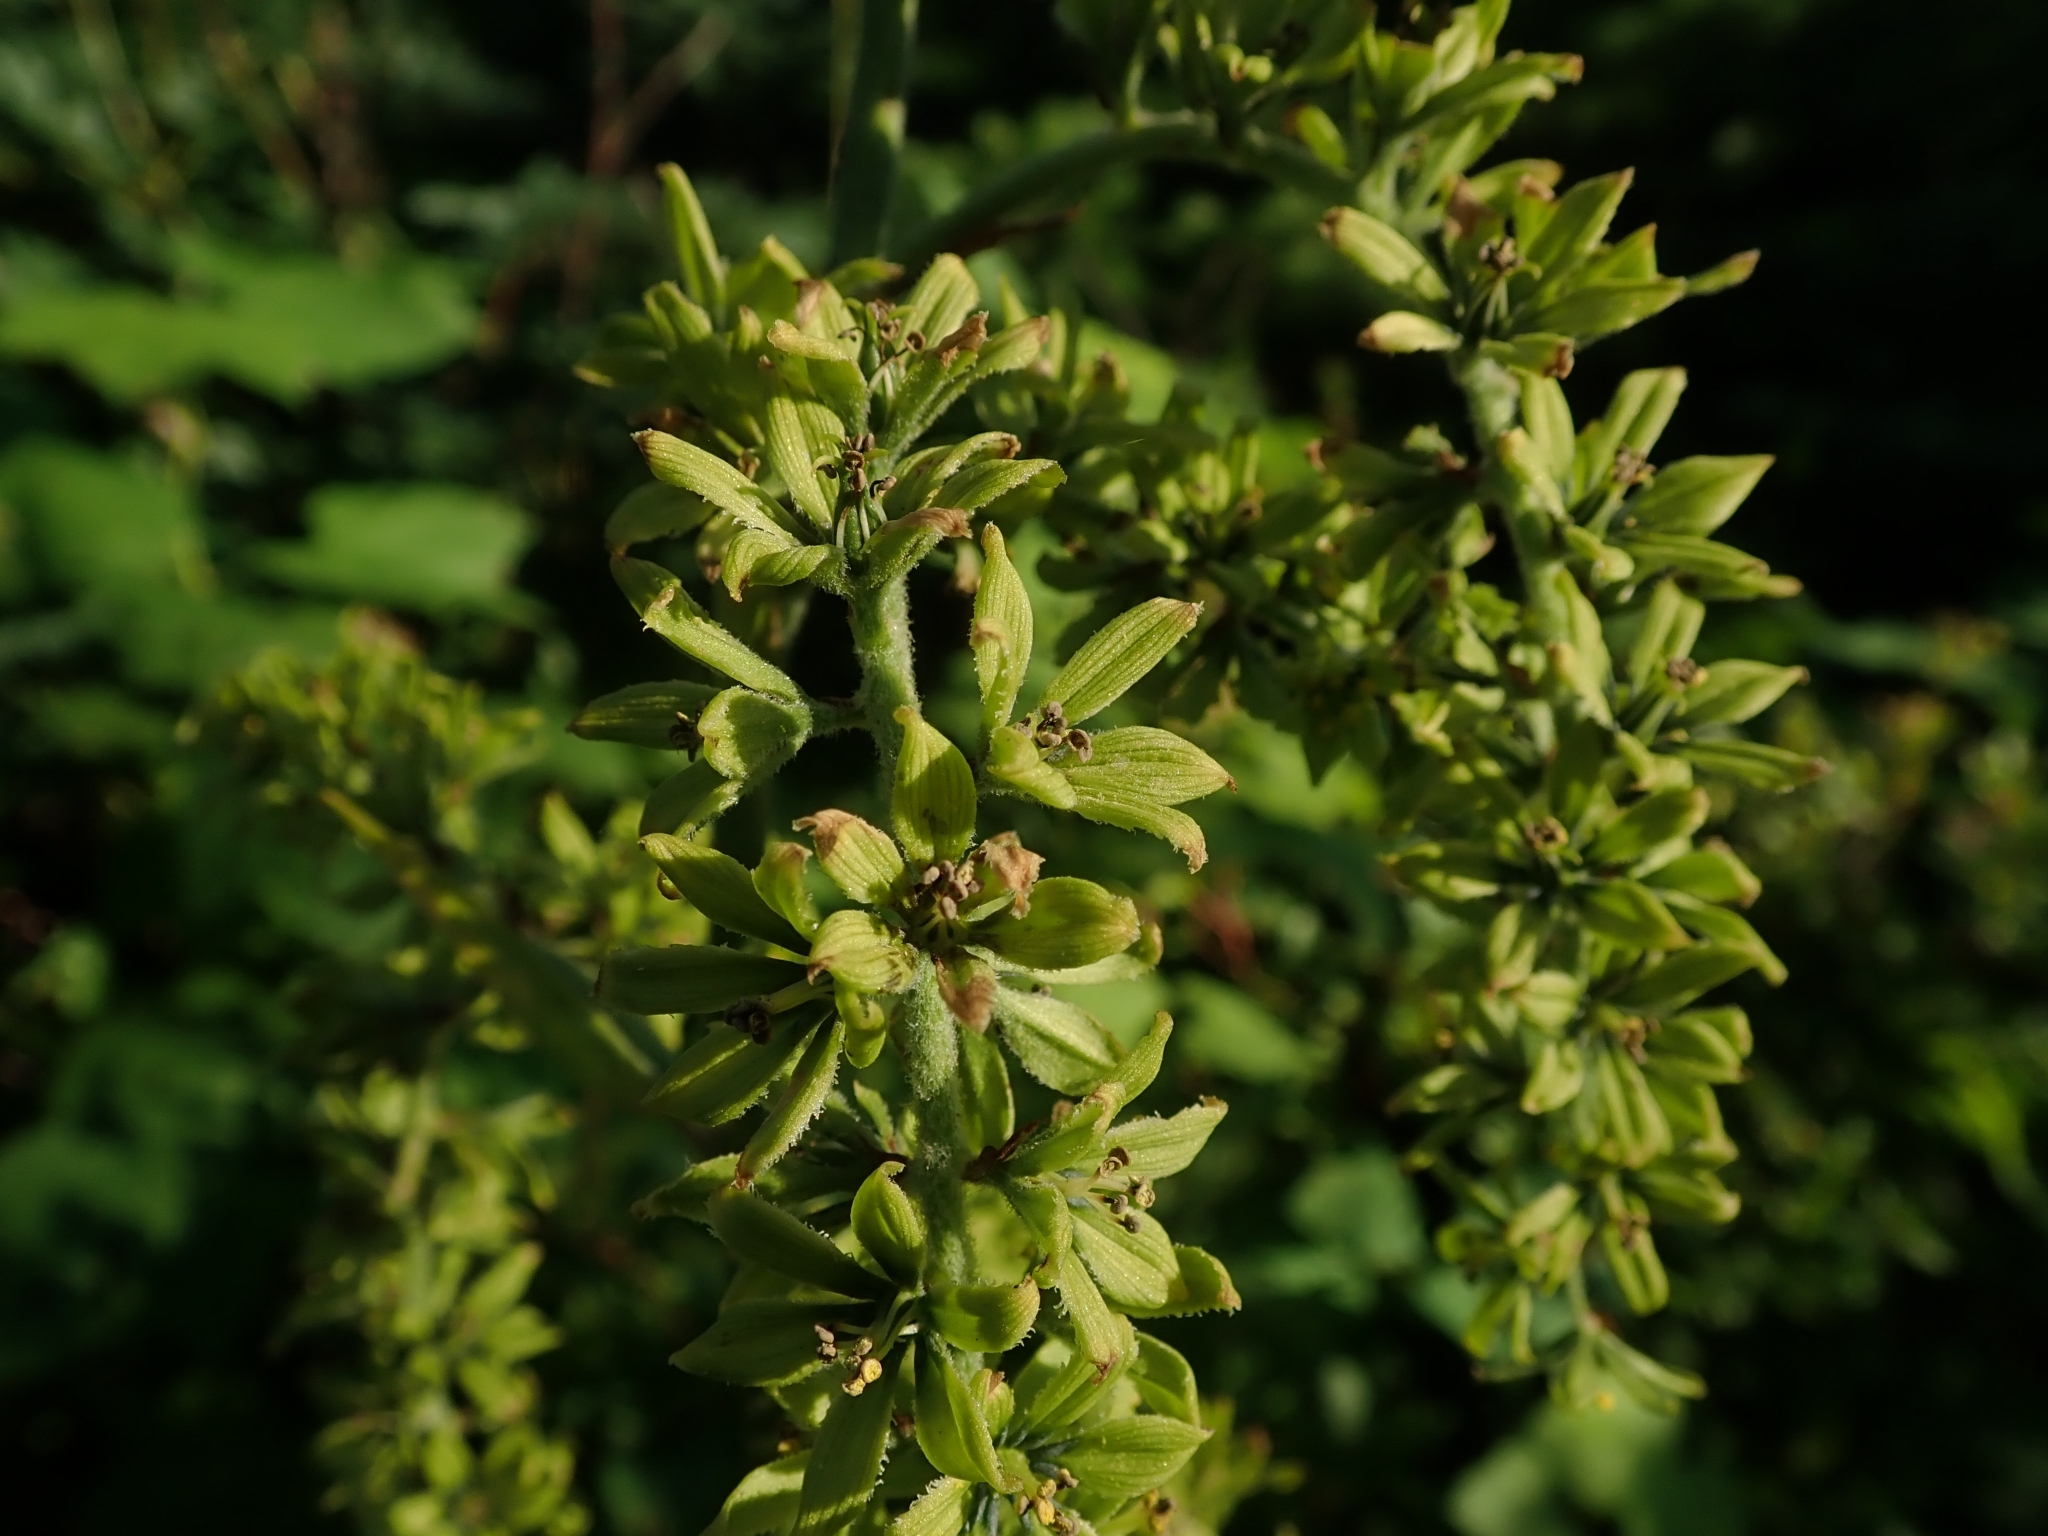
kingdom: Plantae
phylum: Tracheophyta
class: Liliopsida
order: Liliales
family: Melanthiaceae
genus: Veratrum
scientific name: Veratrum viride
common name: American false hellebore
